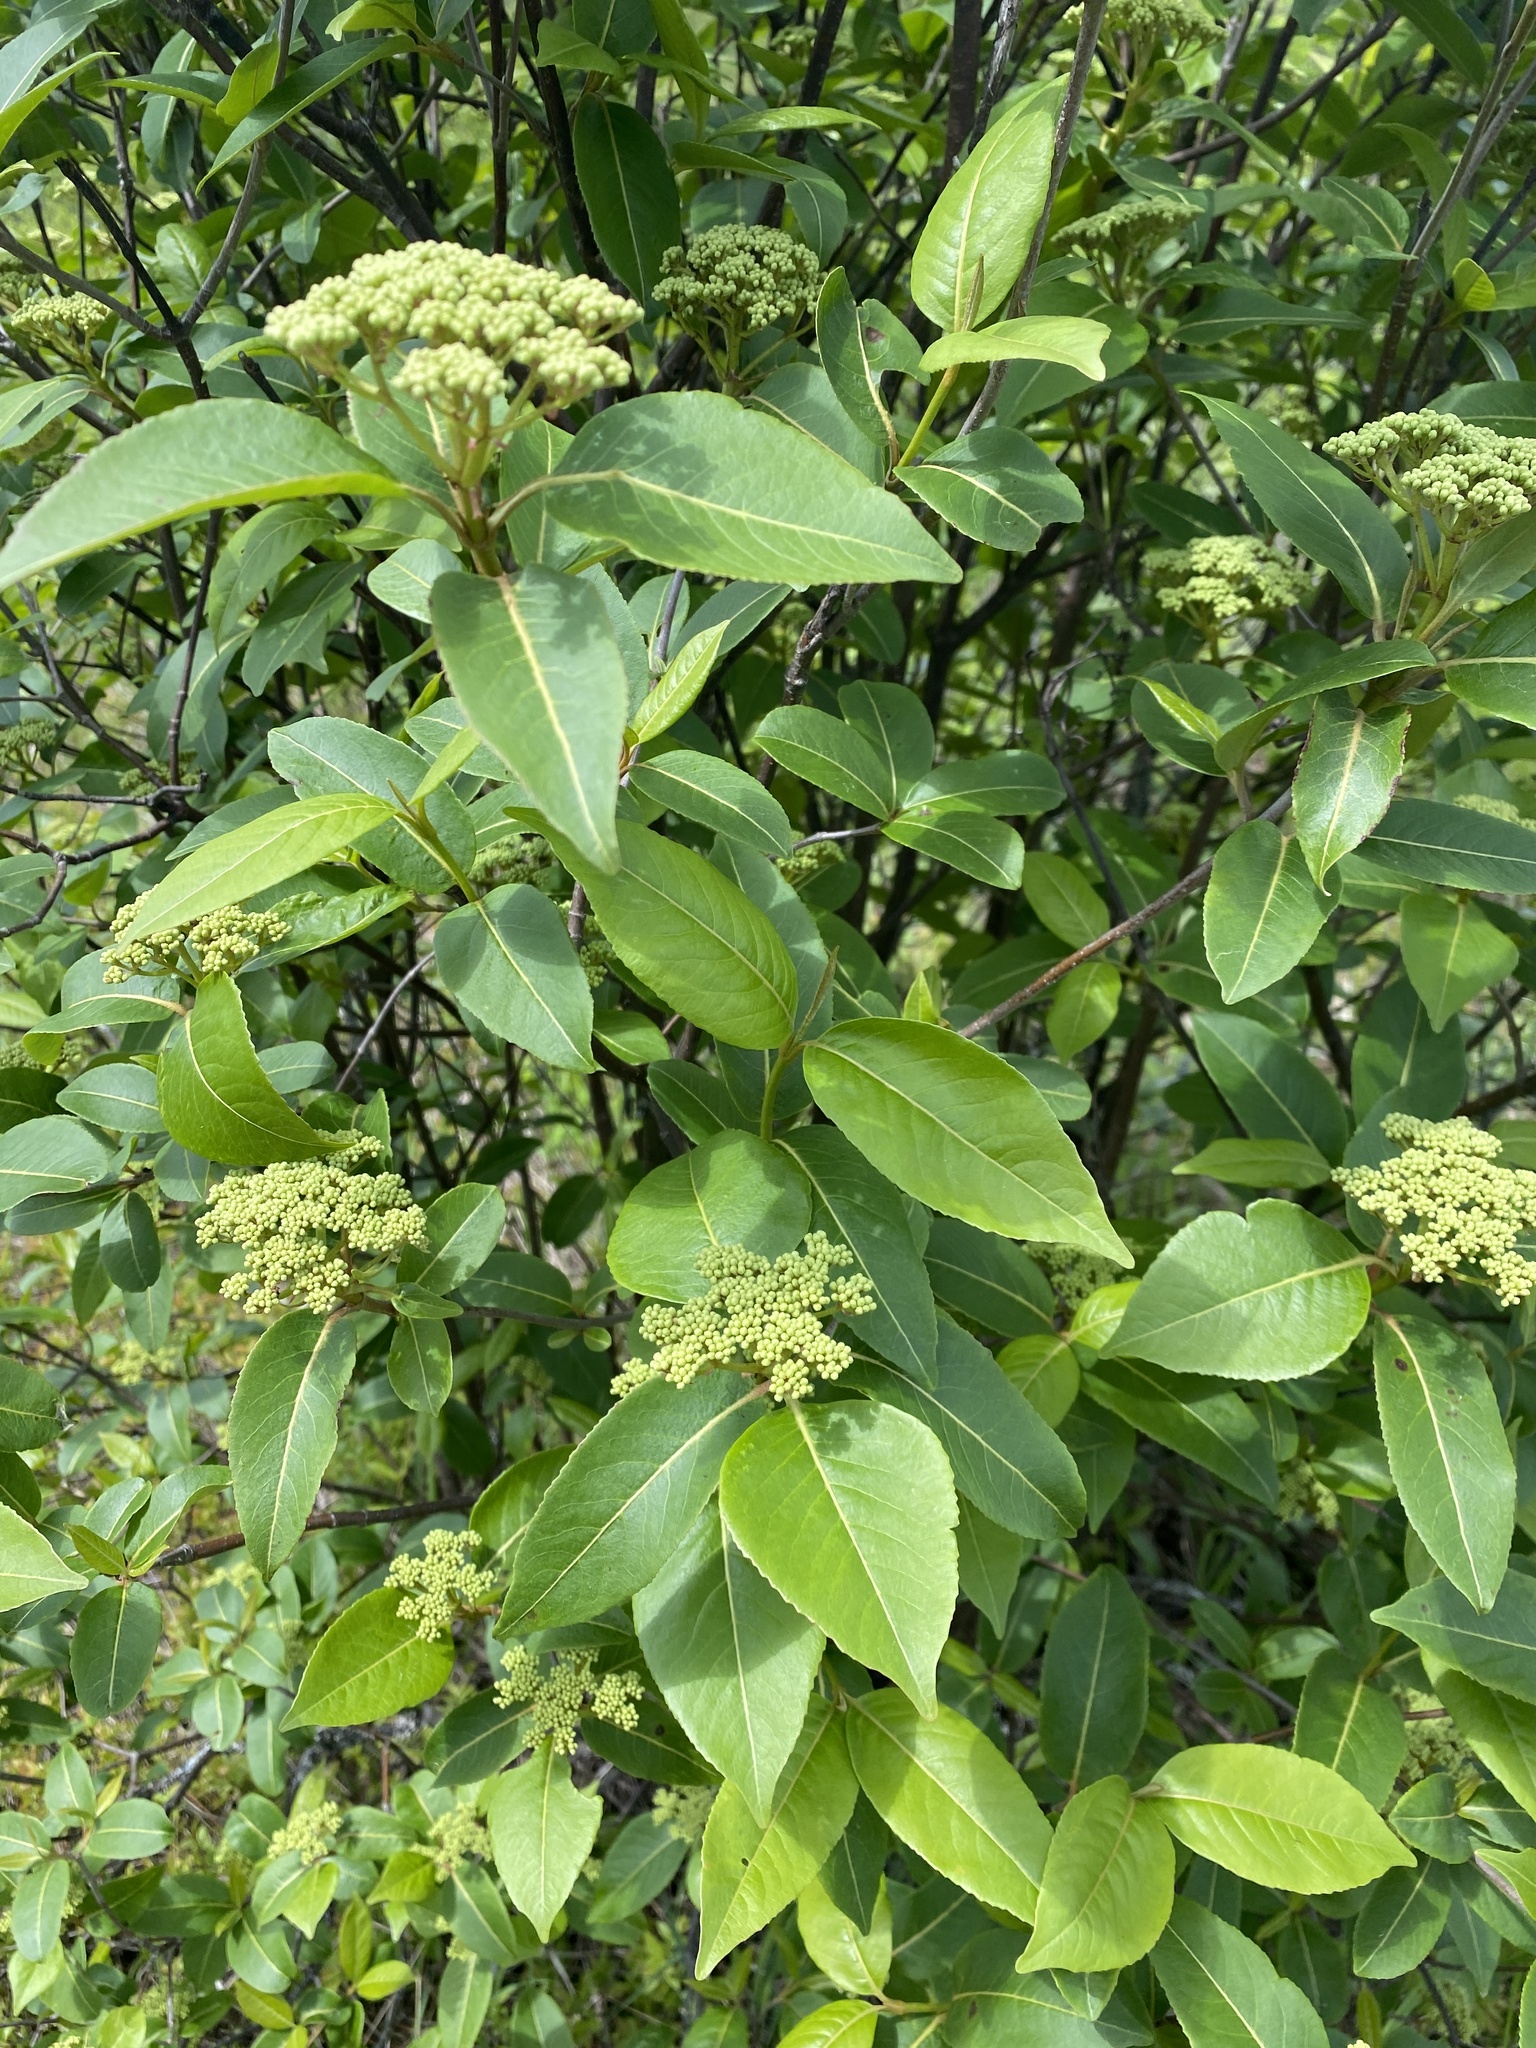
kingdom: Plantae
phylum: Tracheophyta
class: Magnoliopsida
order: Dipsacales
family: Viburnaceae
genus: Viburnum
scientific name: Viburnum cassinoides
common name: Swamp haw
